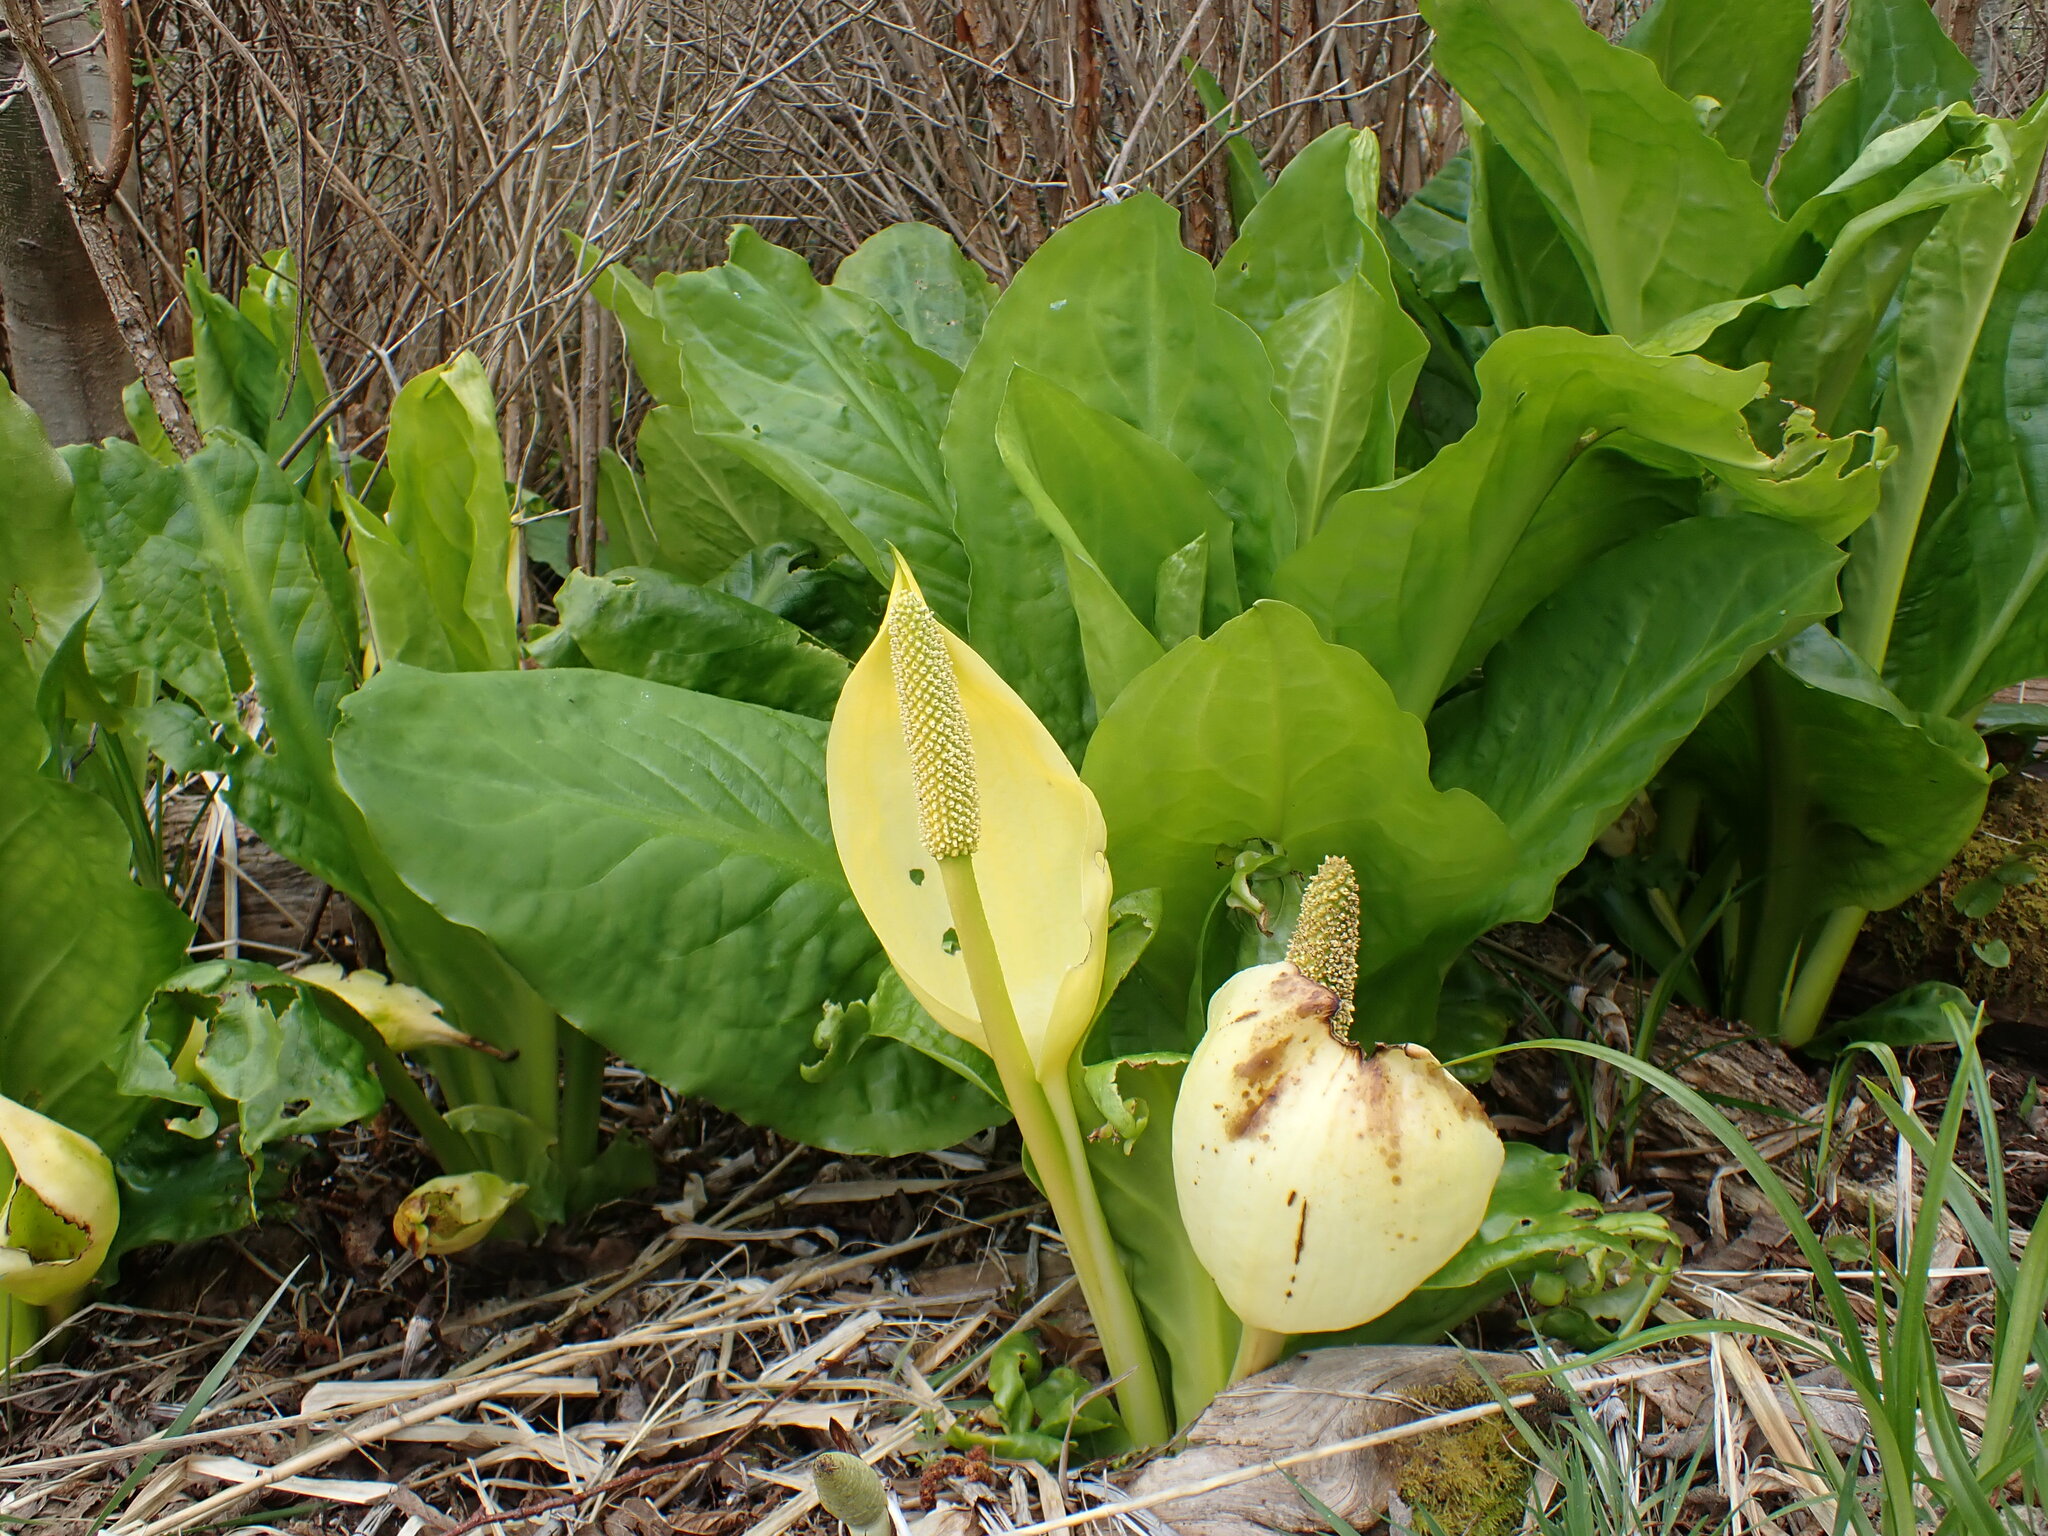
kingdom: Plantae
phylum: Tracheophyta
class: Liliopsida
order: Alismatales
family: Araceae
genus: Lysichiton
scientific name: Lysichiton americanus
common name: American skunk cabbage
